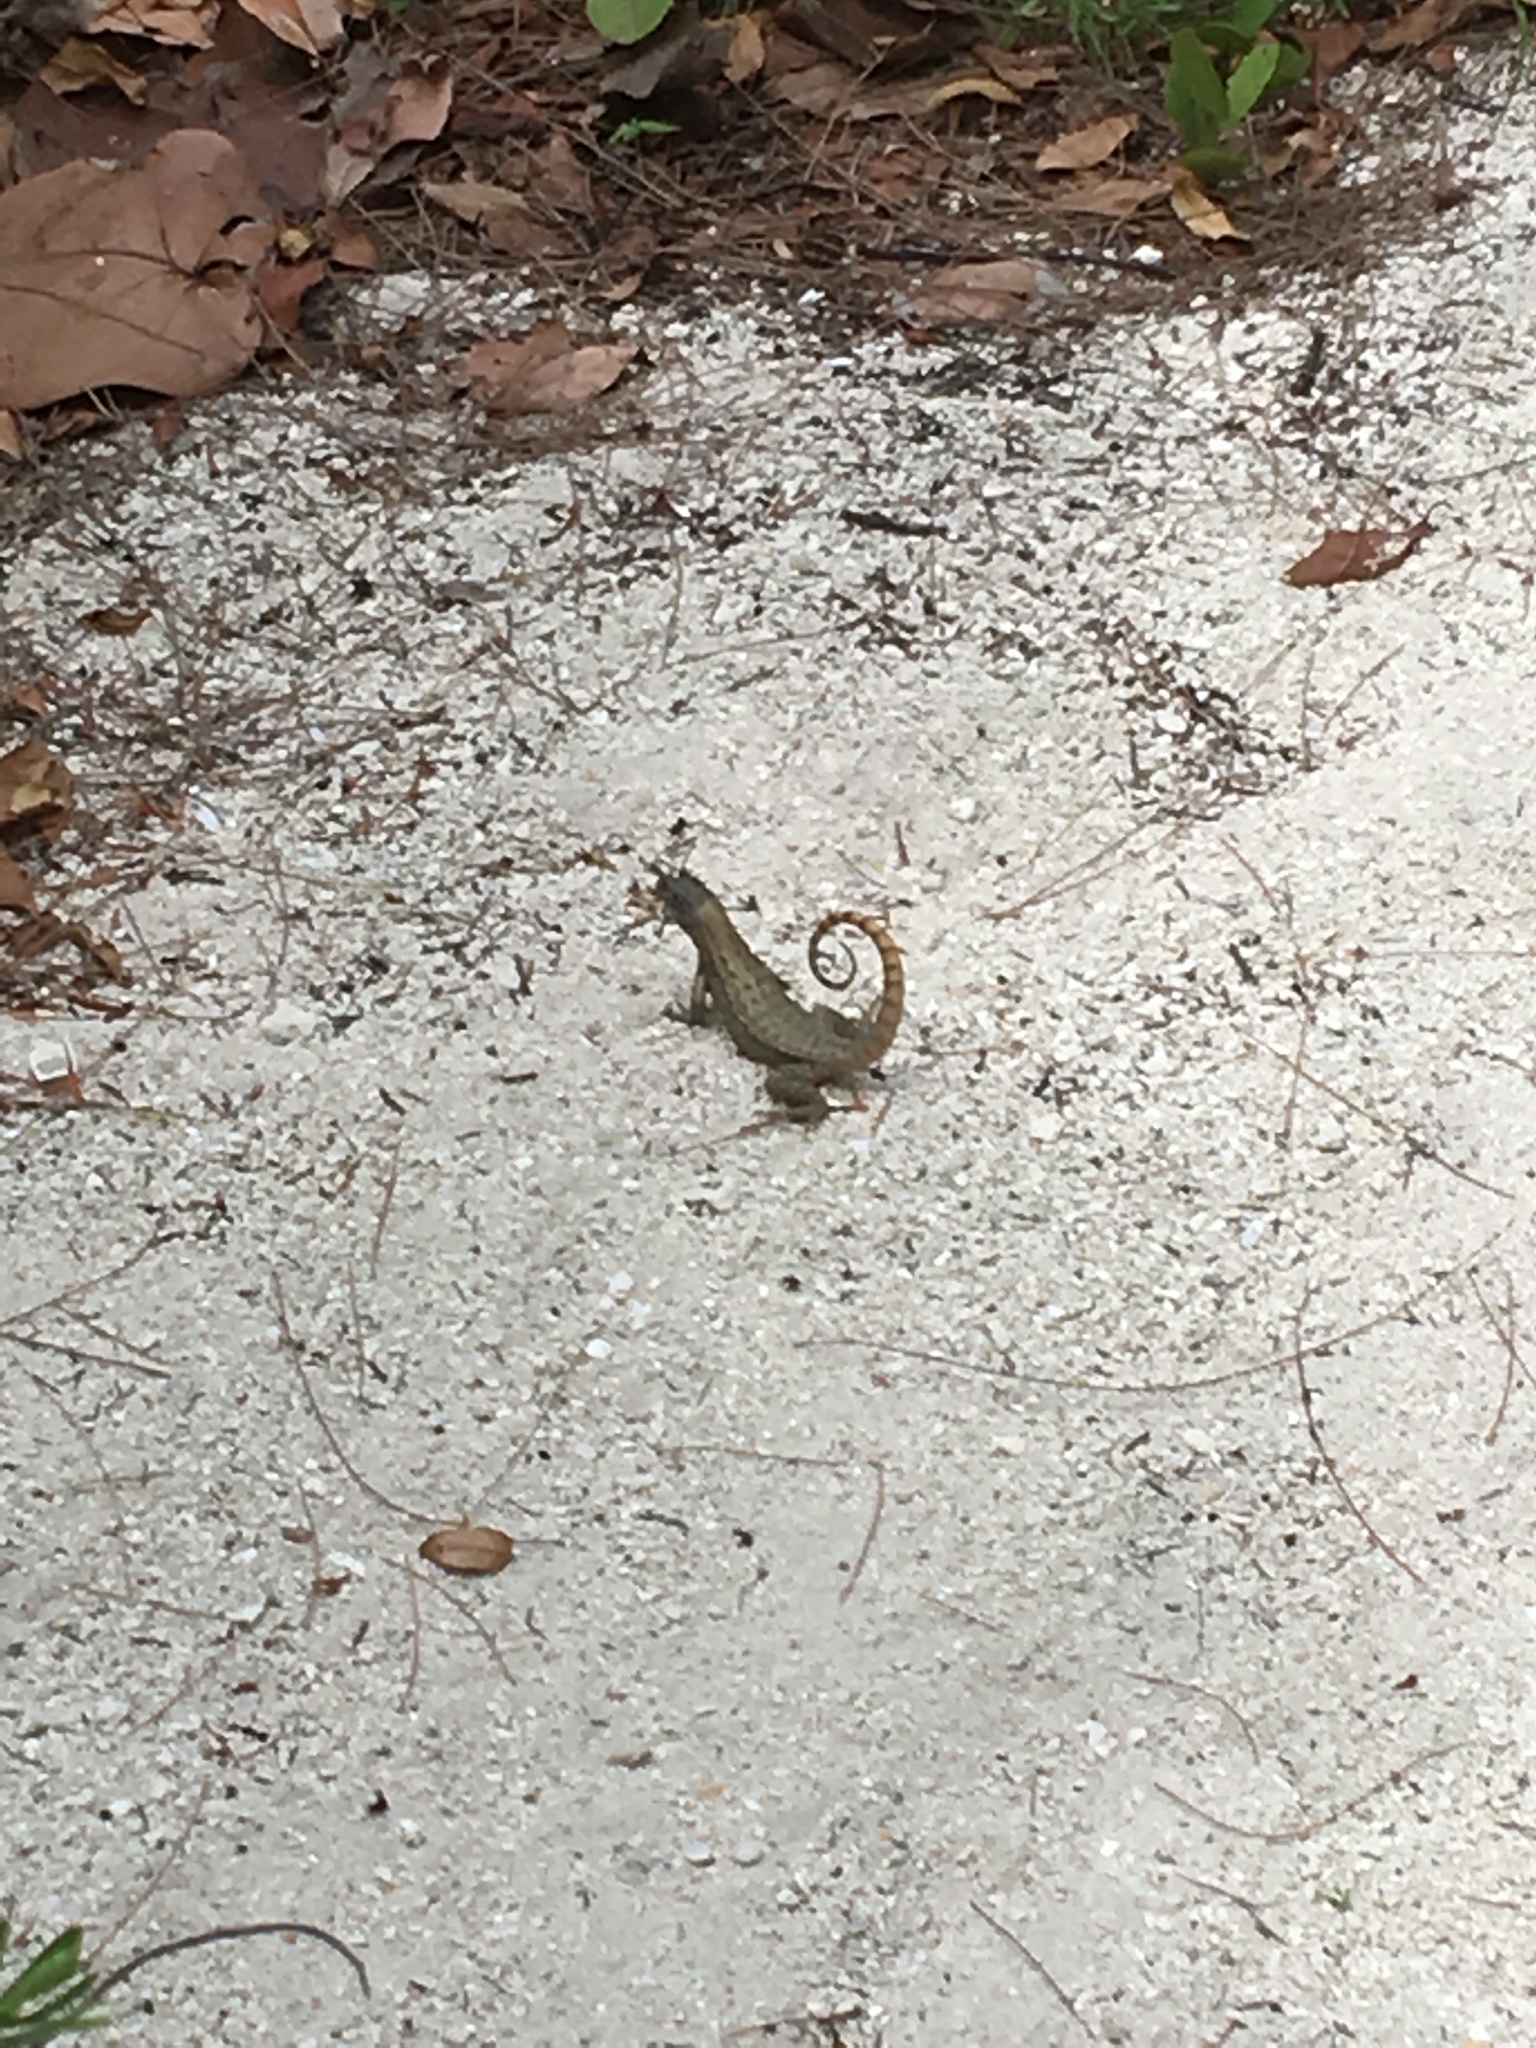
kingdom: Animalia
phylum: Chordata
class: Squamata
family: Leiocephalidae
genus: Leiocephalus
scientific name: Leiocephalus carinatus
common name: Northern curly-tailed lizard
